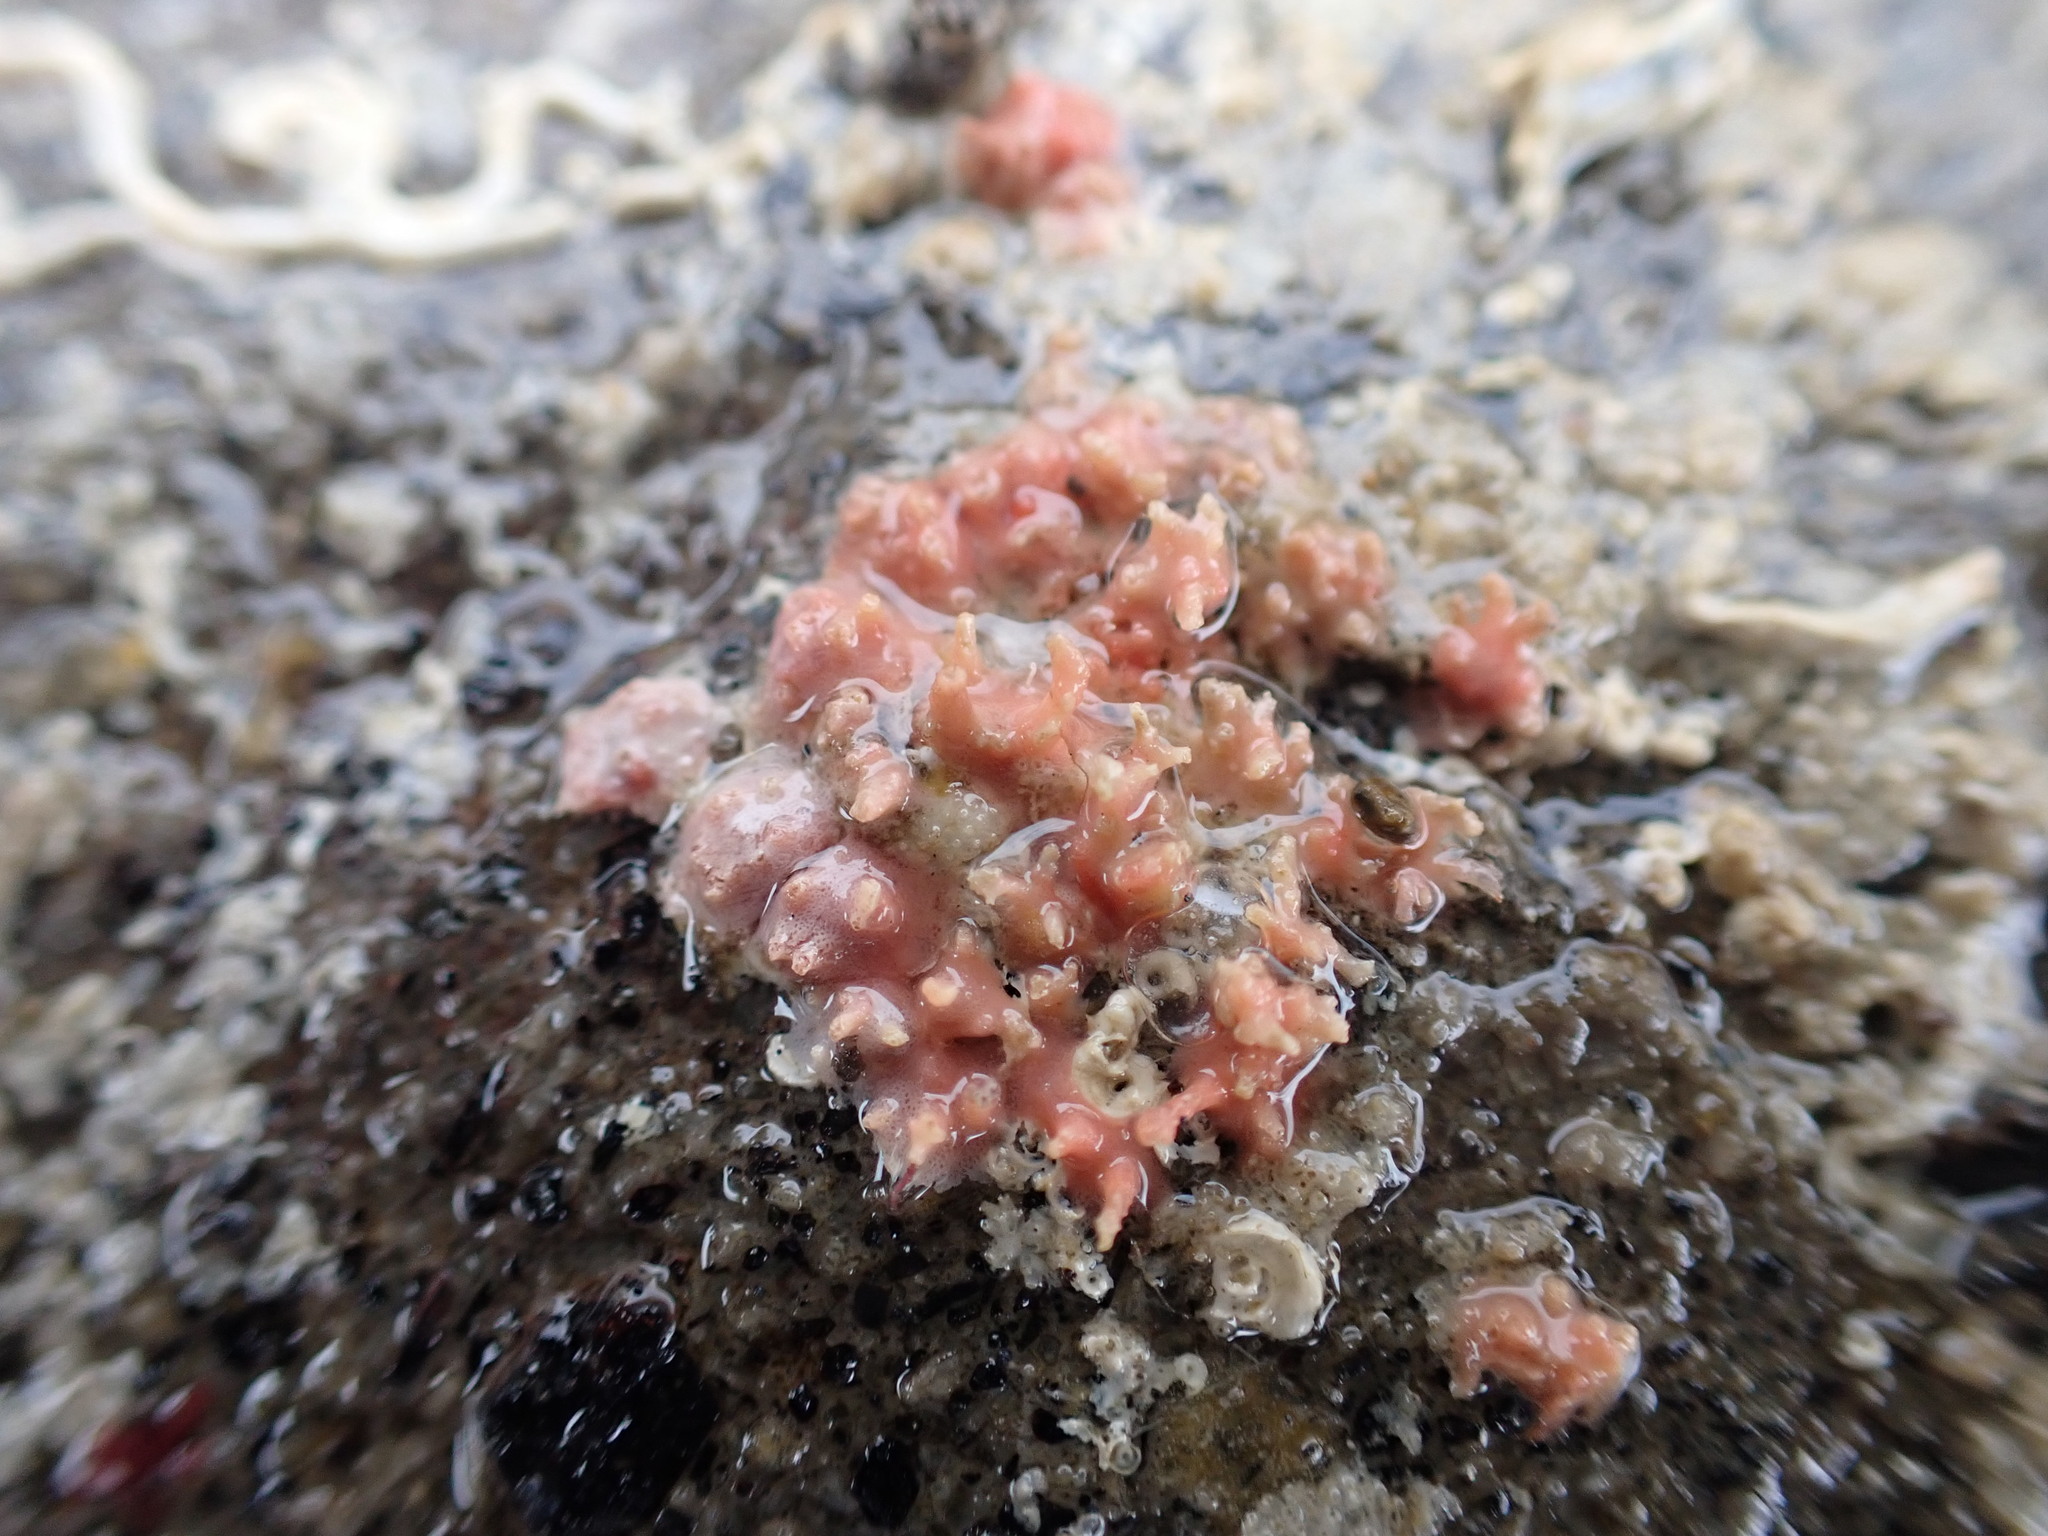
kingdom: Chromista
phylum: Foraminifera
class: Globothalamea
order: Rotaliida
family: Homotrematidae
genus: Miniacina
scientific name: Miniacina miniacea
